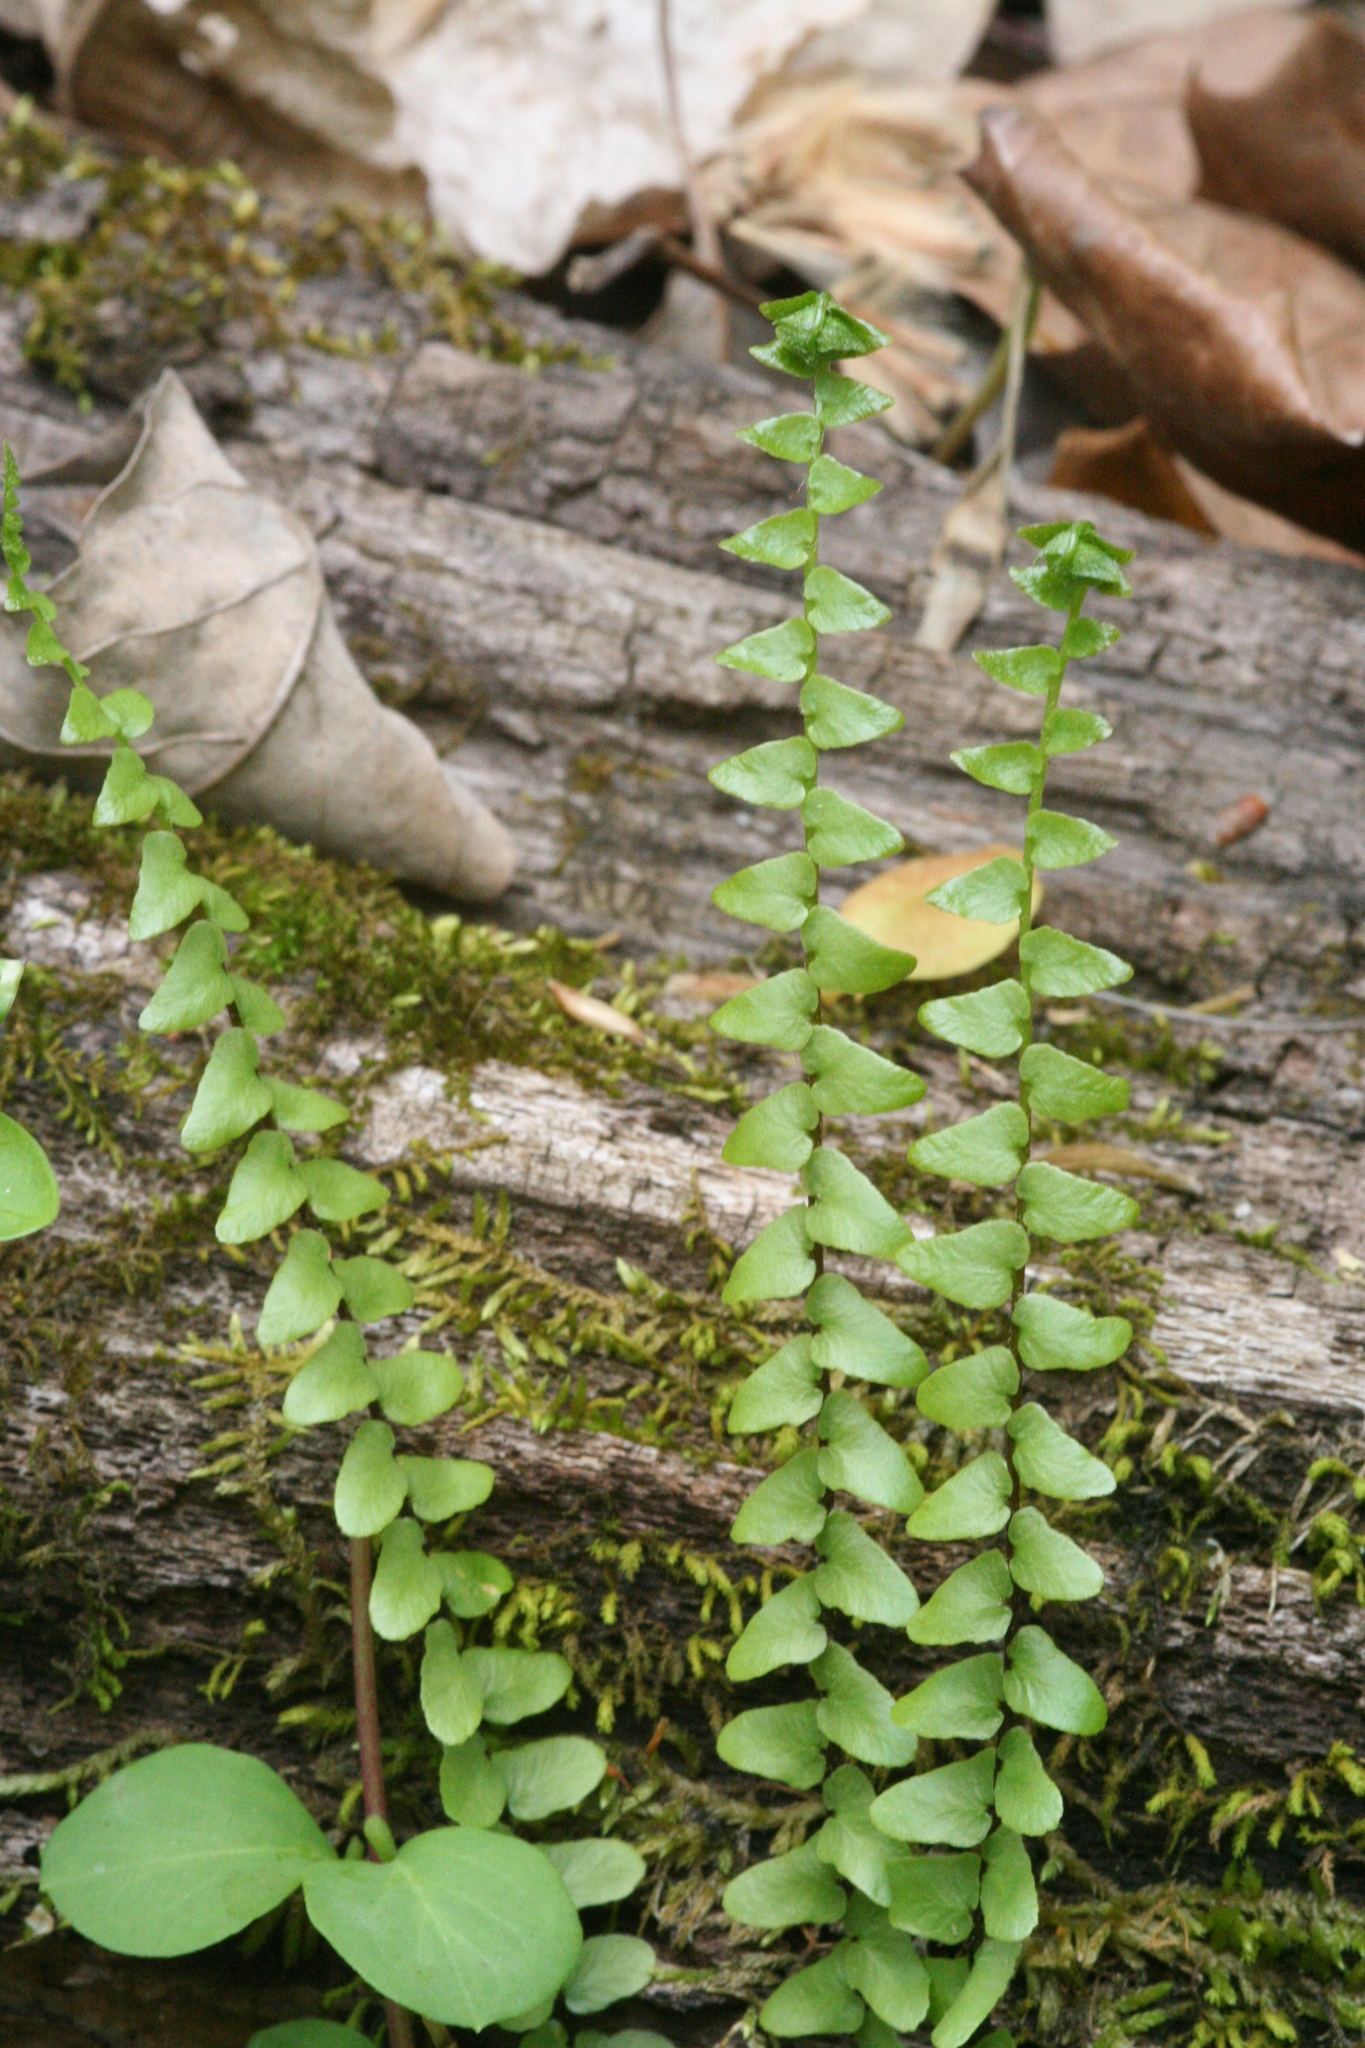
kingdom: Plantae
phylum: Tracheophyta
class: Polypodiopsida
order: Polypodiales
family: Aspleniaceae
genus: Asplenium
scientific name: Asplenium platyneuron
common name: Ebony spleenwort
